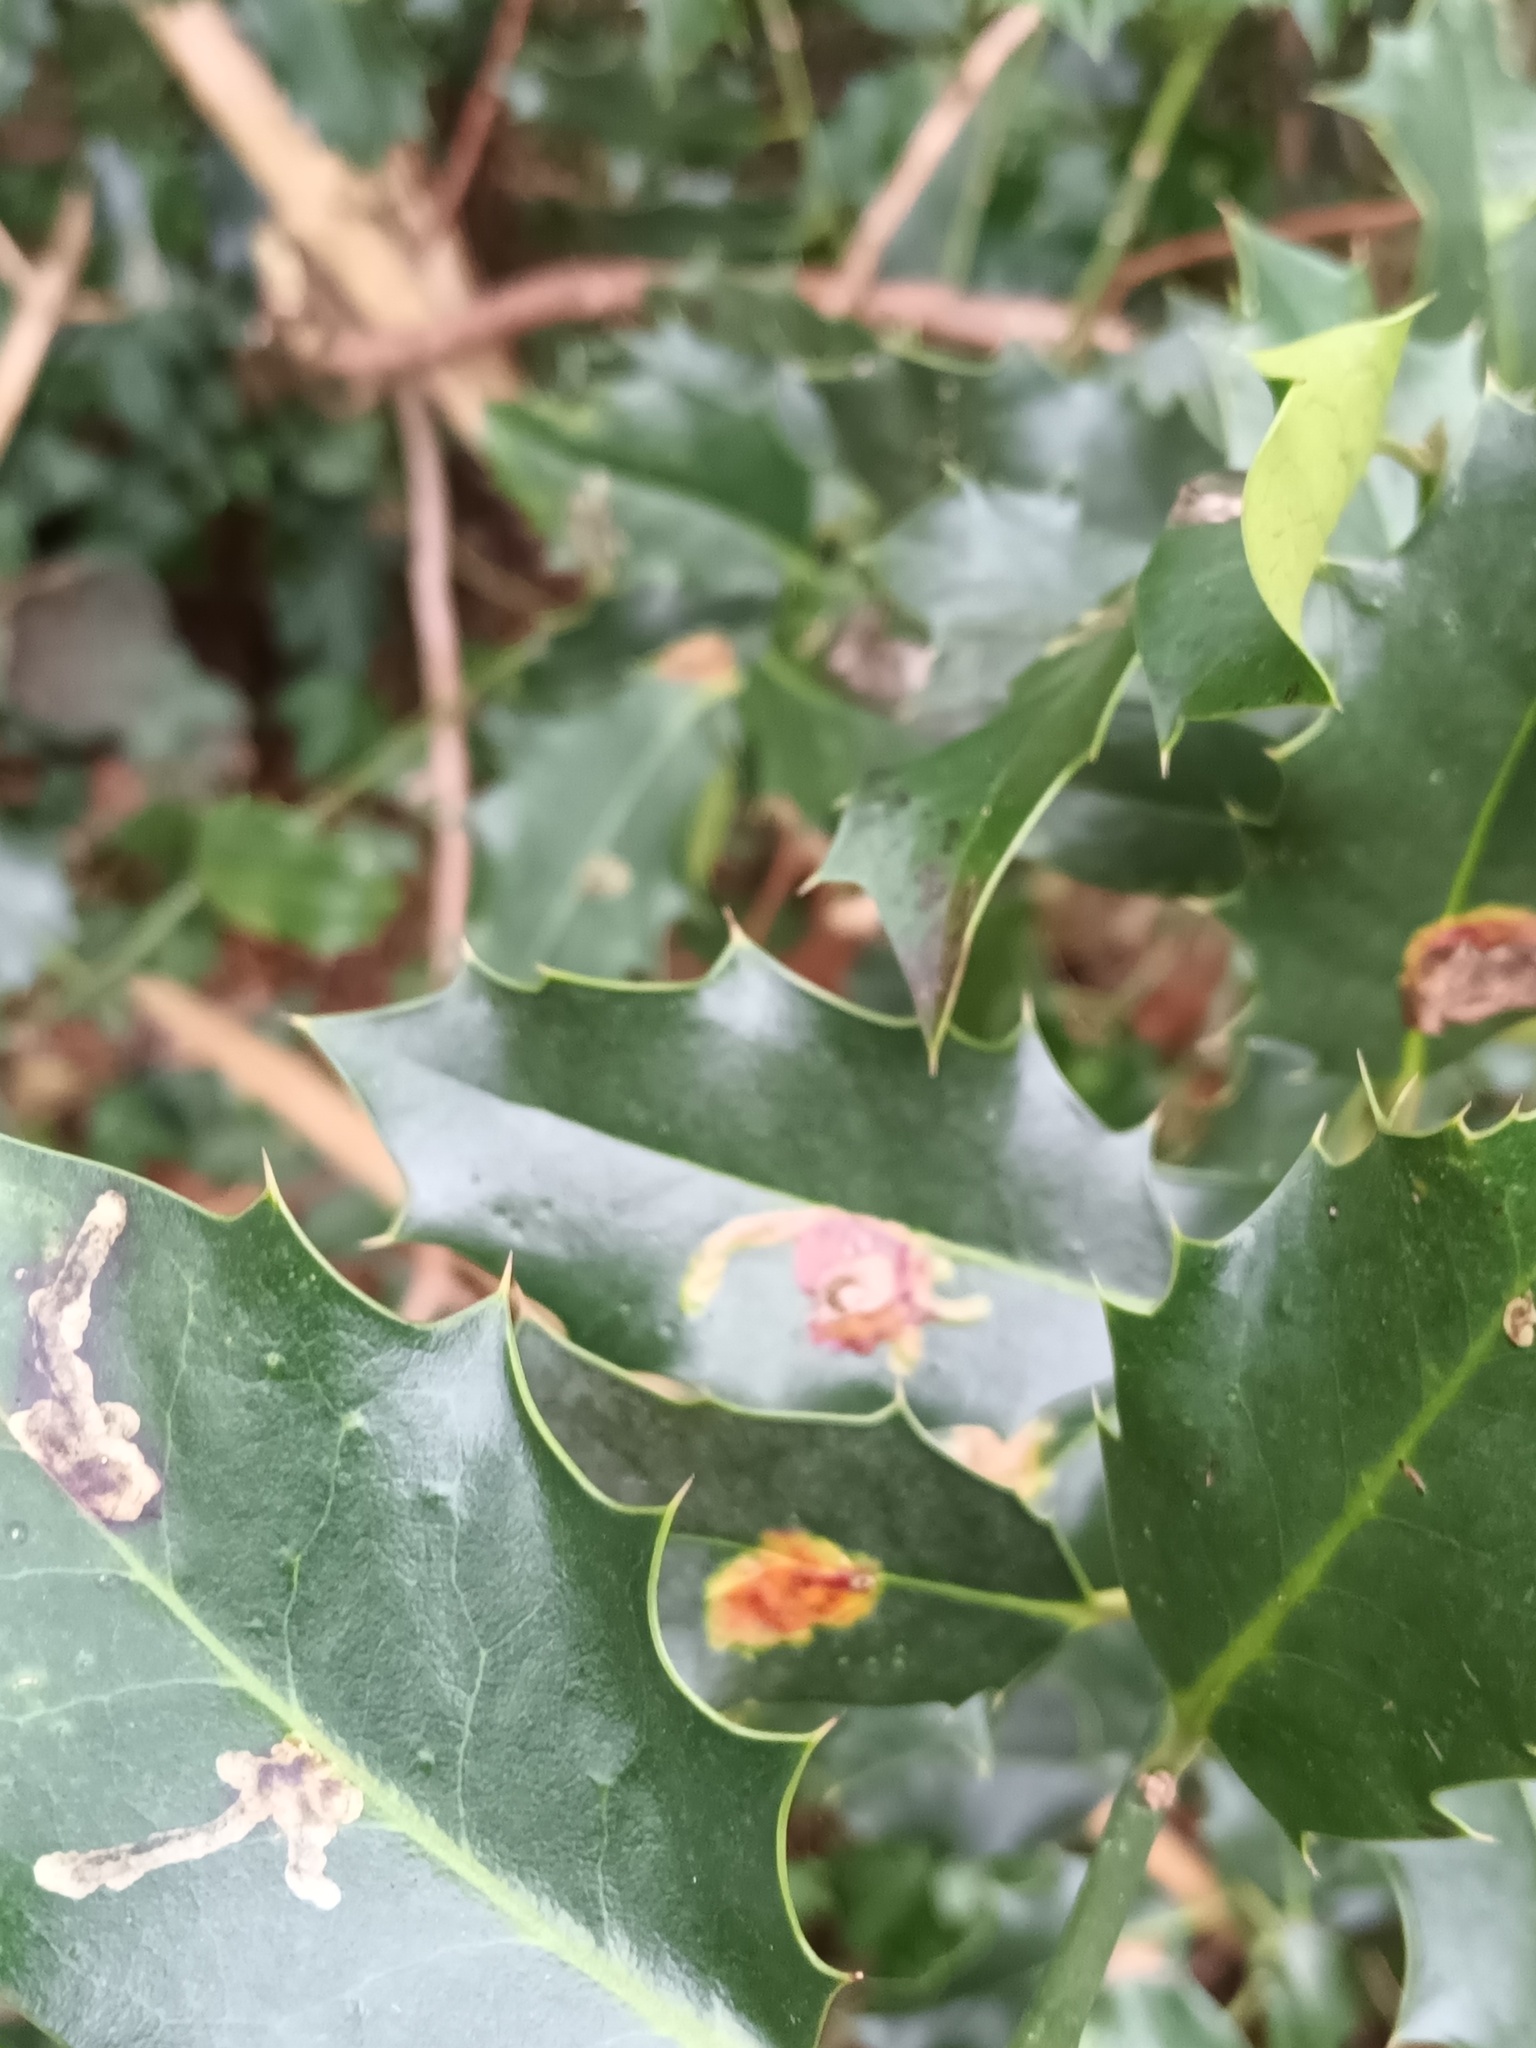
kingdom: Animalia
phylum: Arthropoda
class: Insecta
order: Diptera
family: Agromyzidae
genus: Phytomyza
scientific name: Phytomyza ilicis
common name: Holly leafminer
